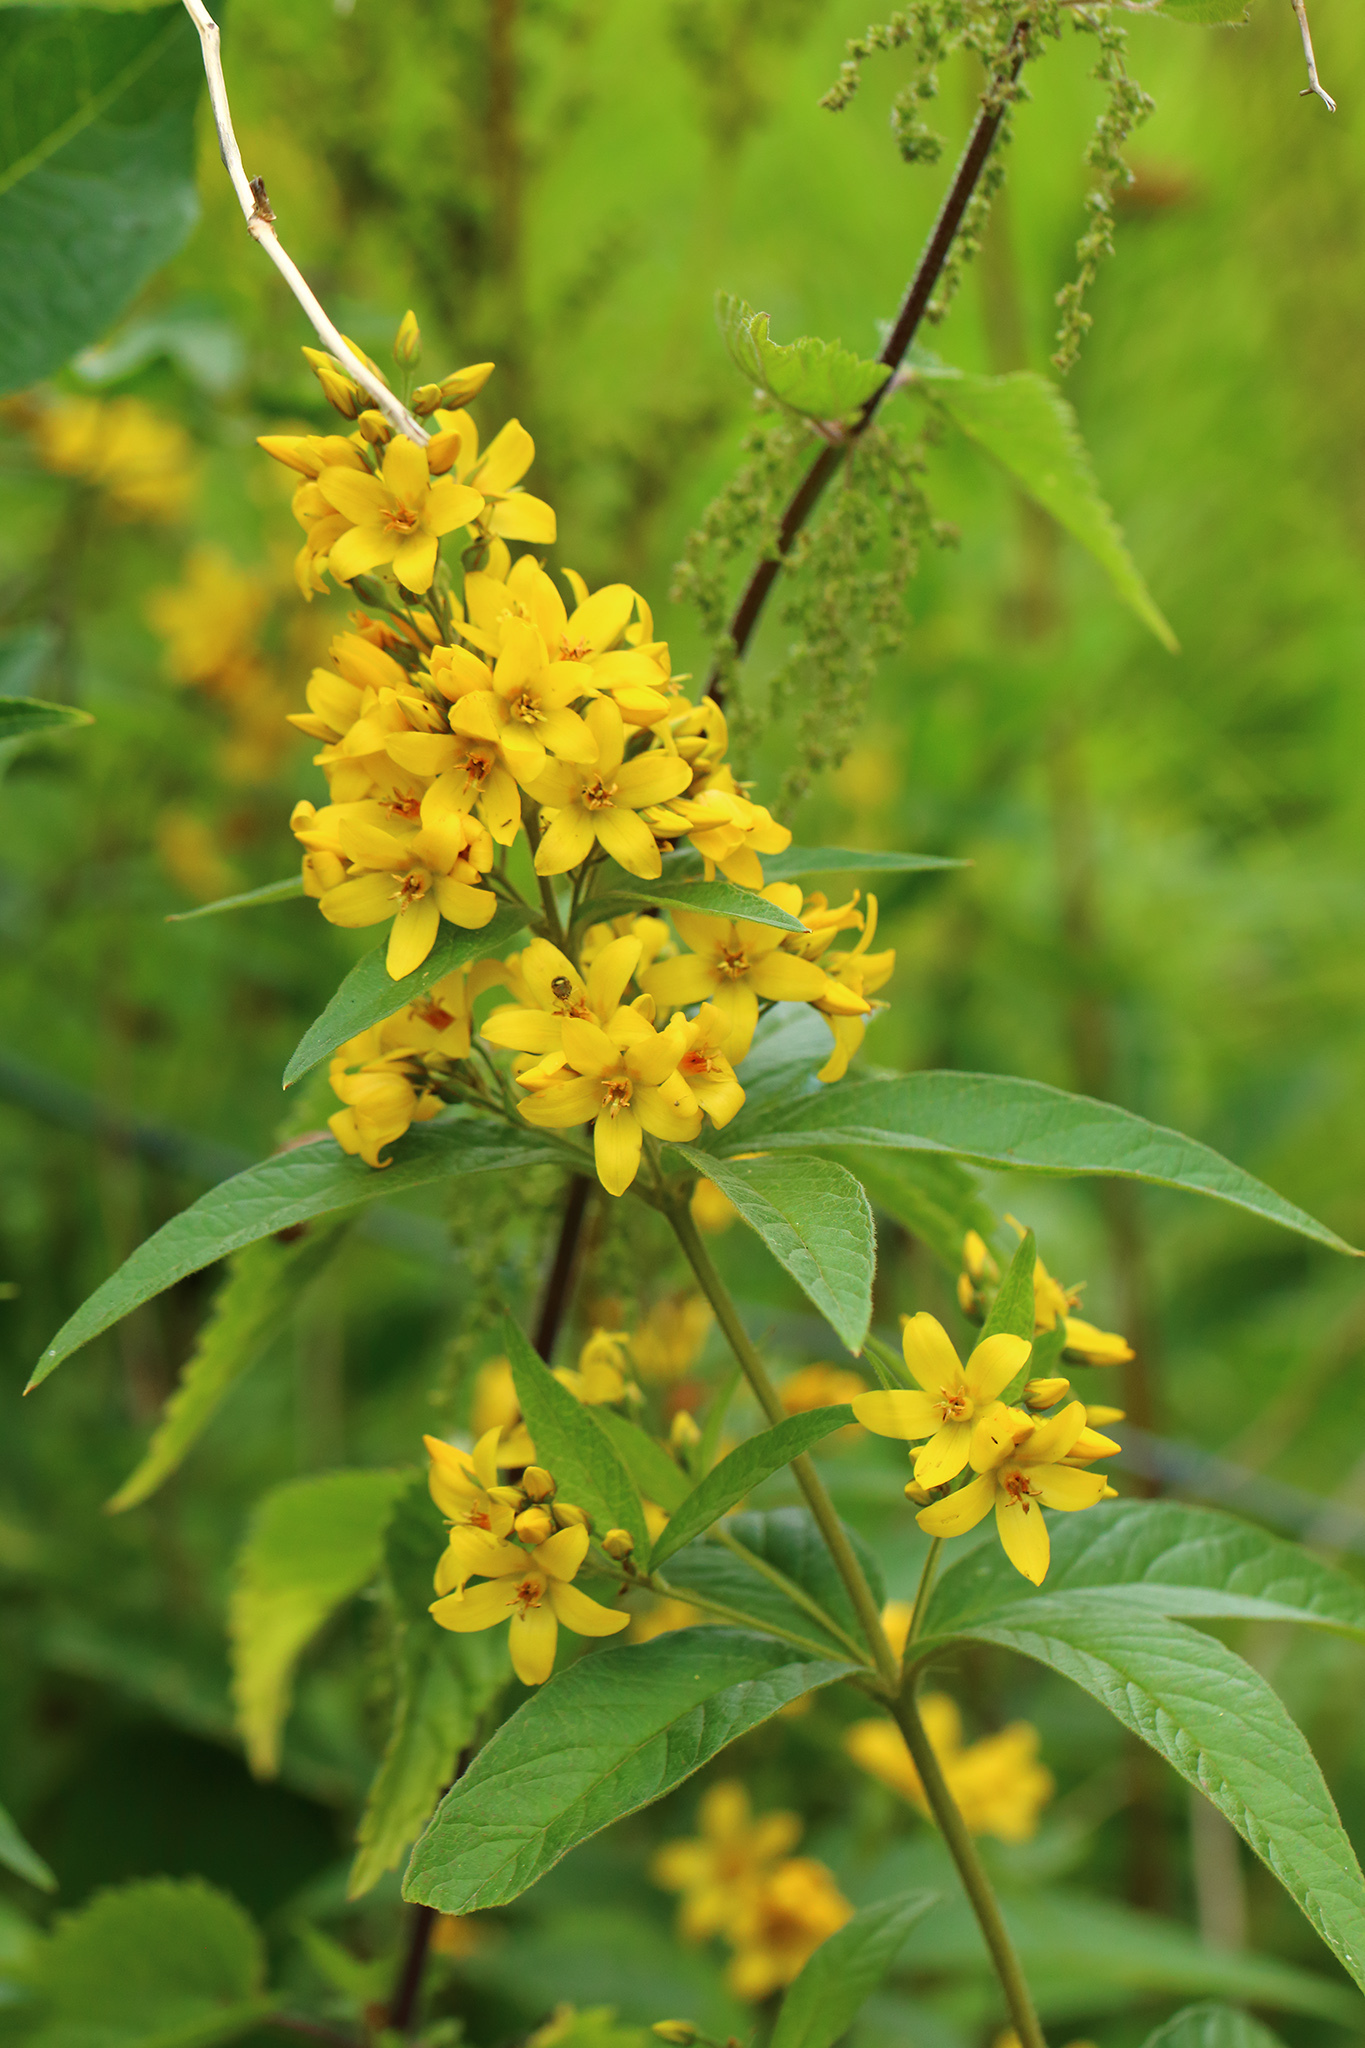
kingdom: Plantae
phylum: Tracheophyta
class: Magnoliopsida
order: Ericales
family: Primulaceae
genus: Lysimachia
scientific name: Lysimachia vulgaris
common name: Yellow loosestrife
